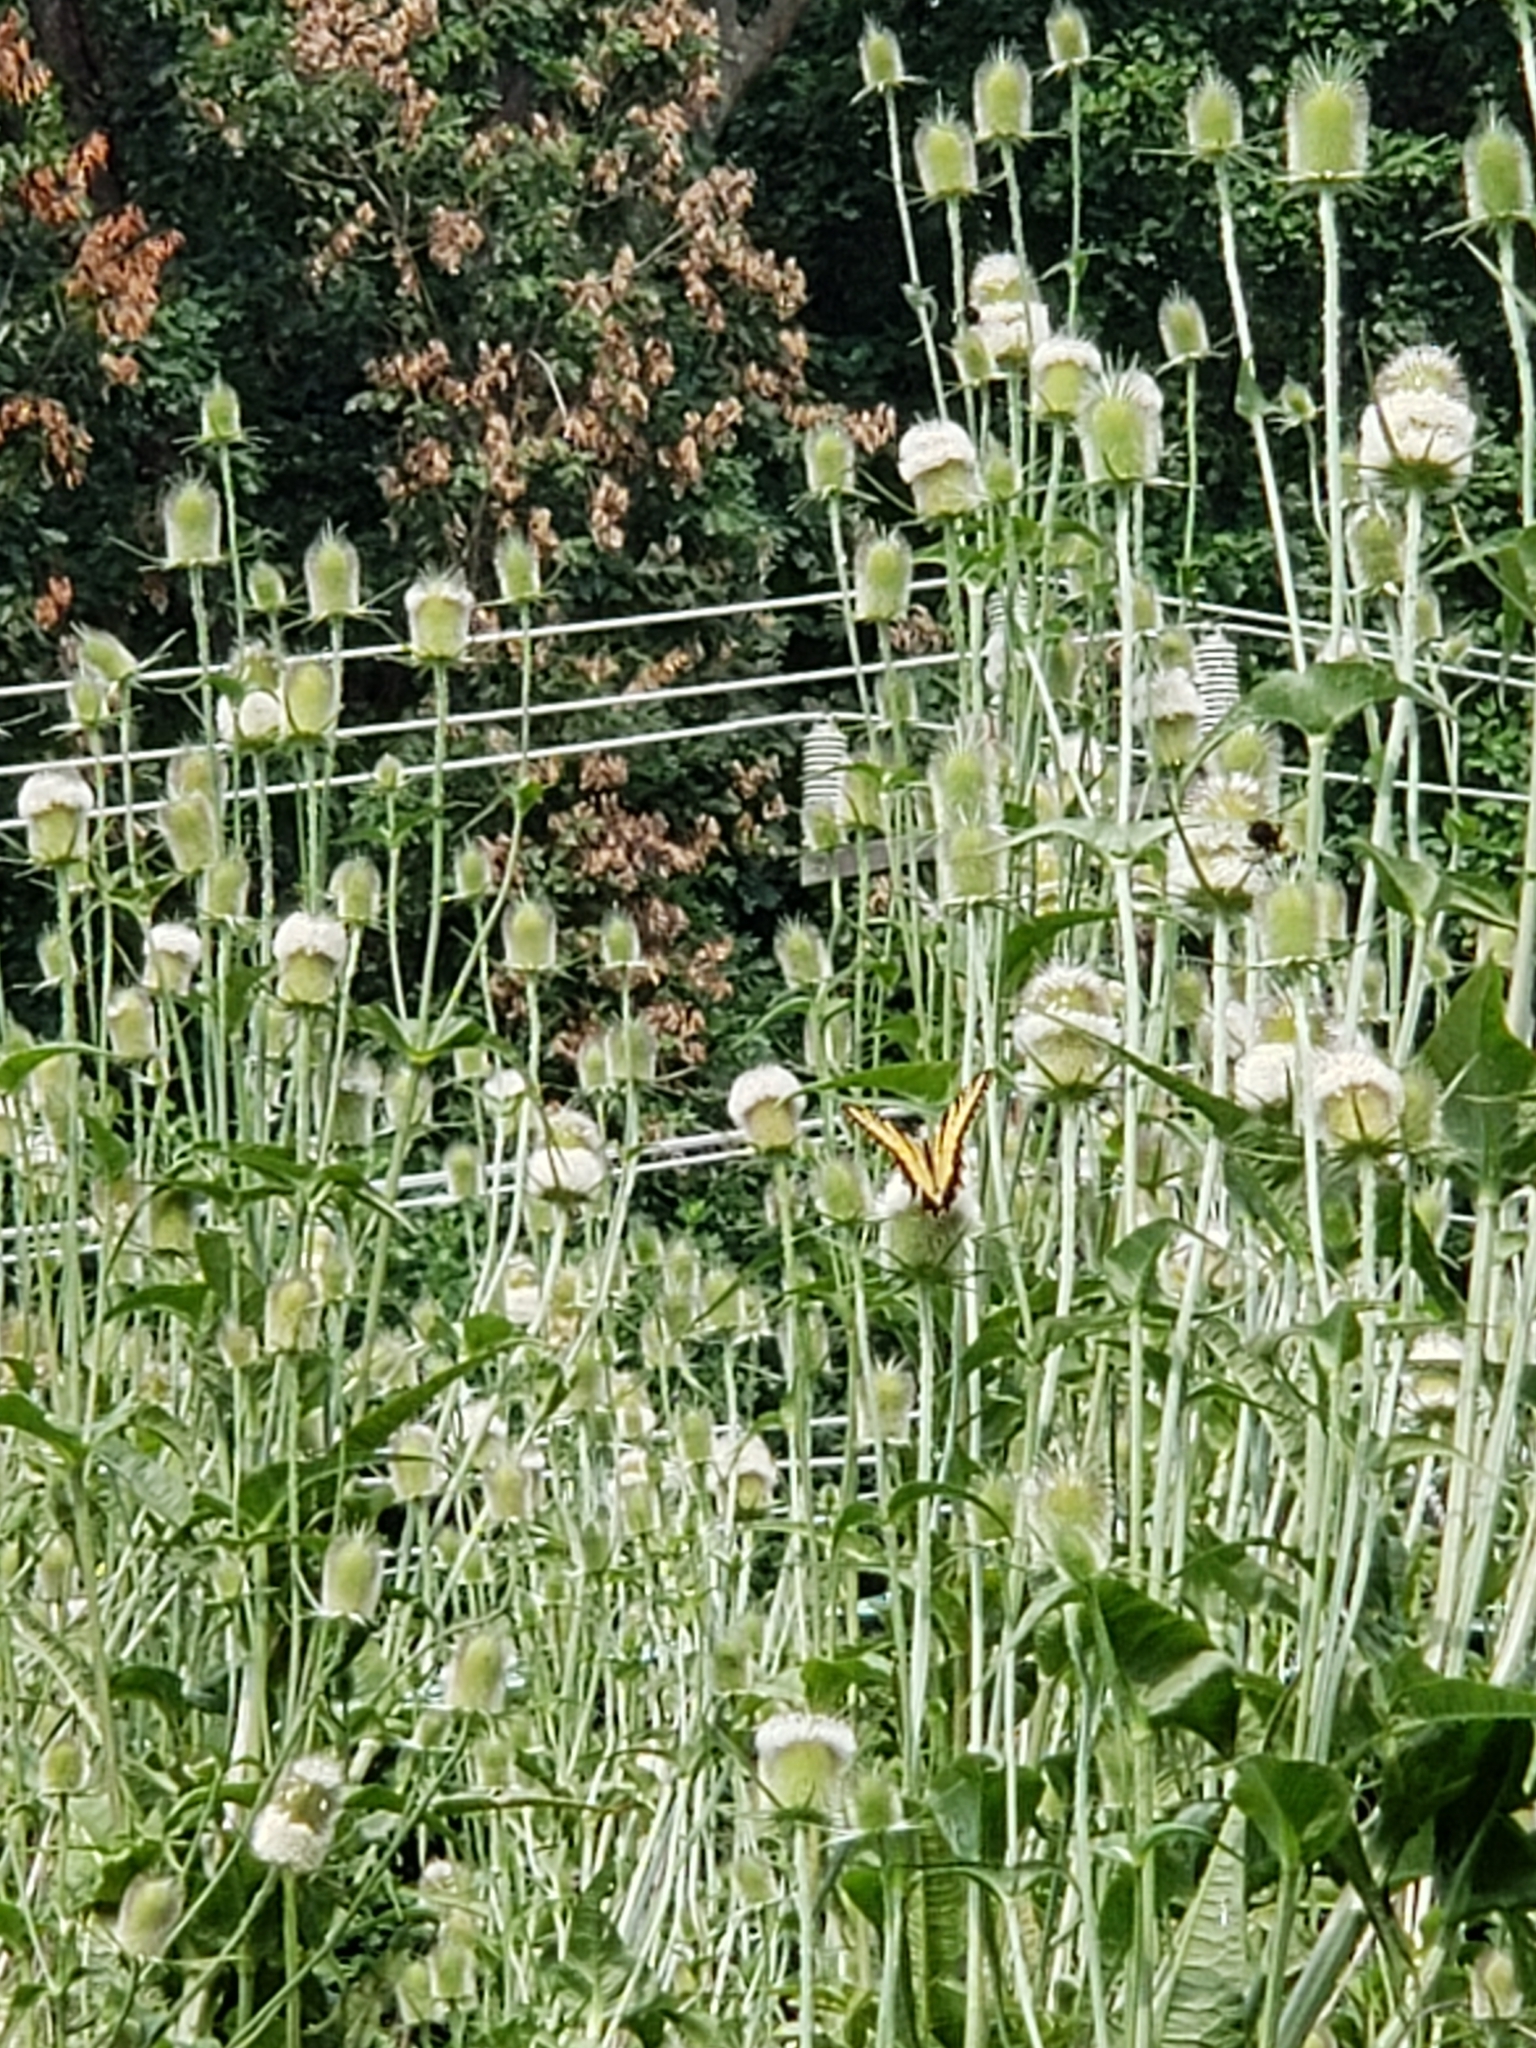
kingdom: Plantae
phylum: Tracheophyta
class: Magnoliopsida
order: Dipsacales
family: Caprifoliaceae
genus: Dipsacus
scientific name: Dipsacus laciniatus
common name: Cut-leaved teasel
